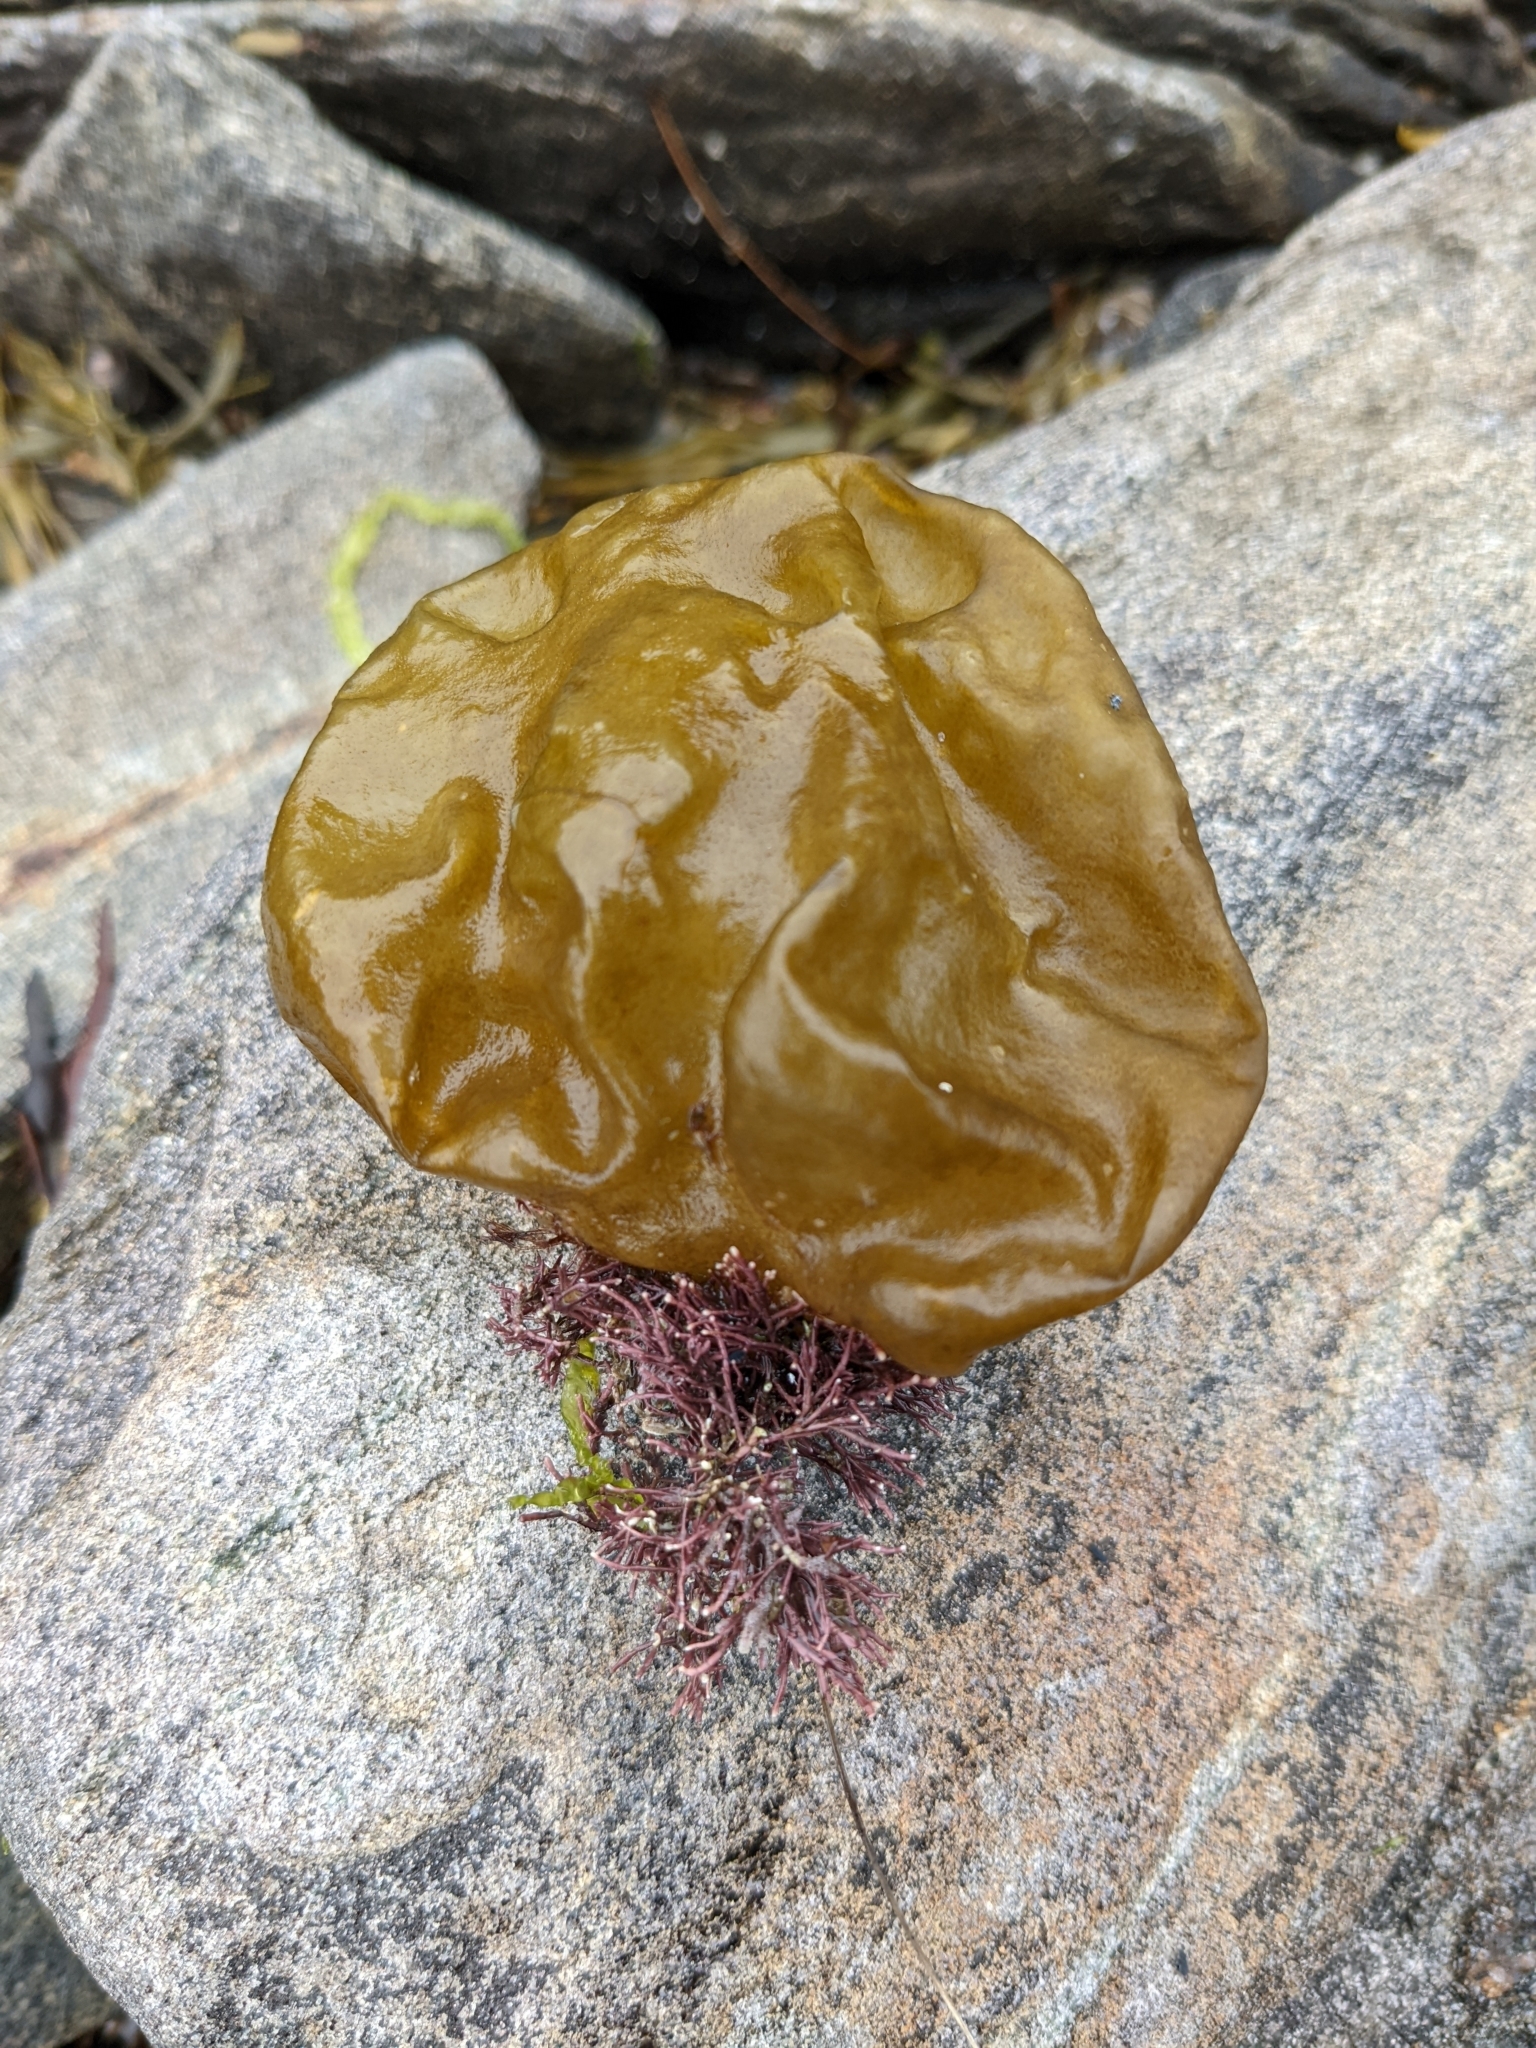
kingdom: Chromista
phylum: Ochrophyta
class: Phaeophyceae
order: Scytosiphonales
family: Scytosiphonaceae
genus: Colpomenia
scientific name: Colpomenia peregrina
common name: Oyster thief
